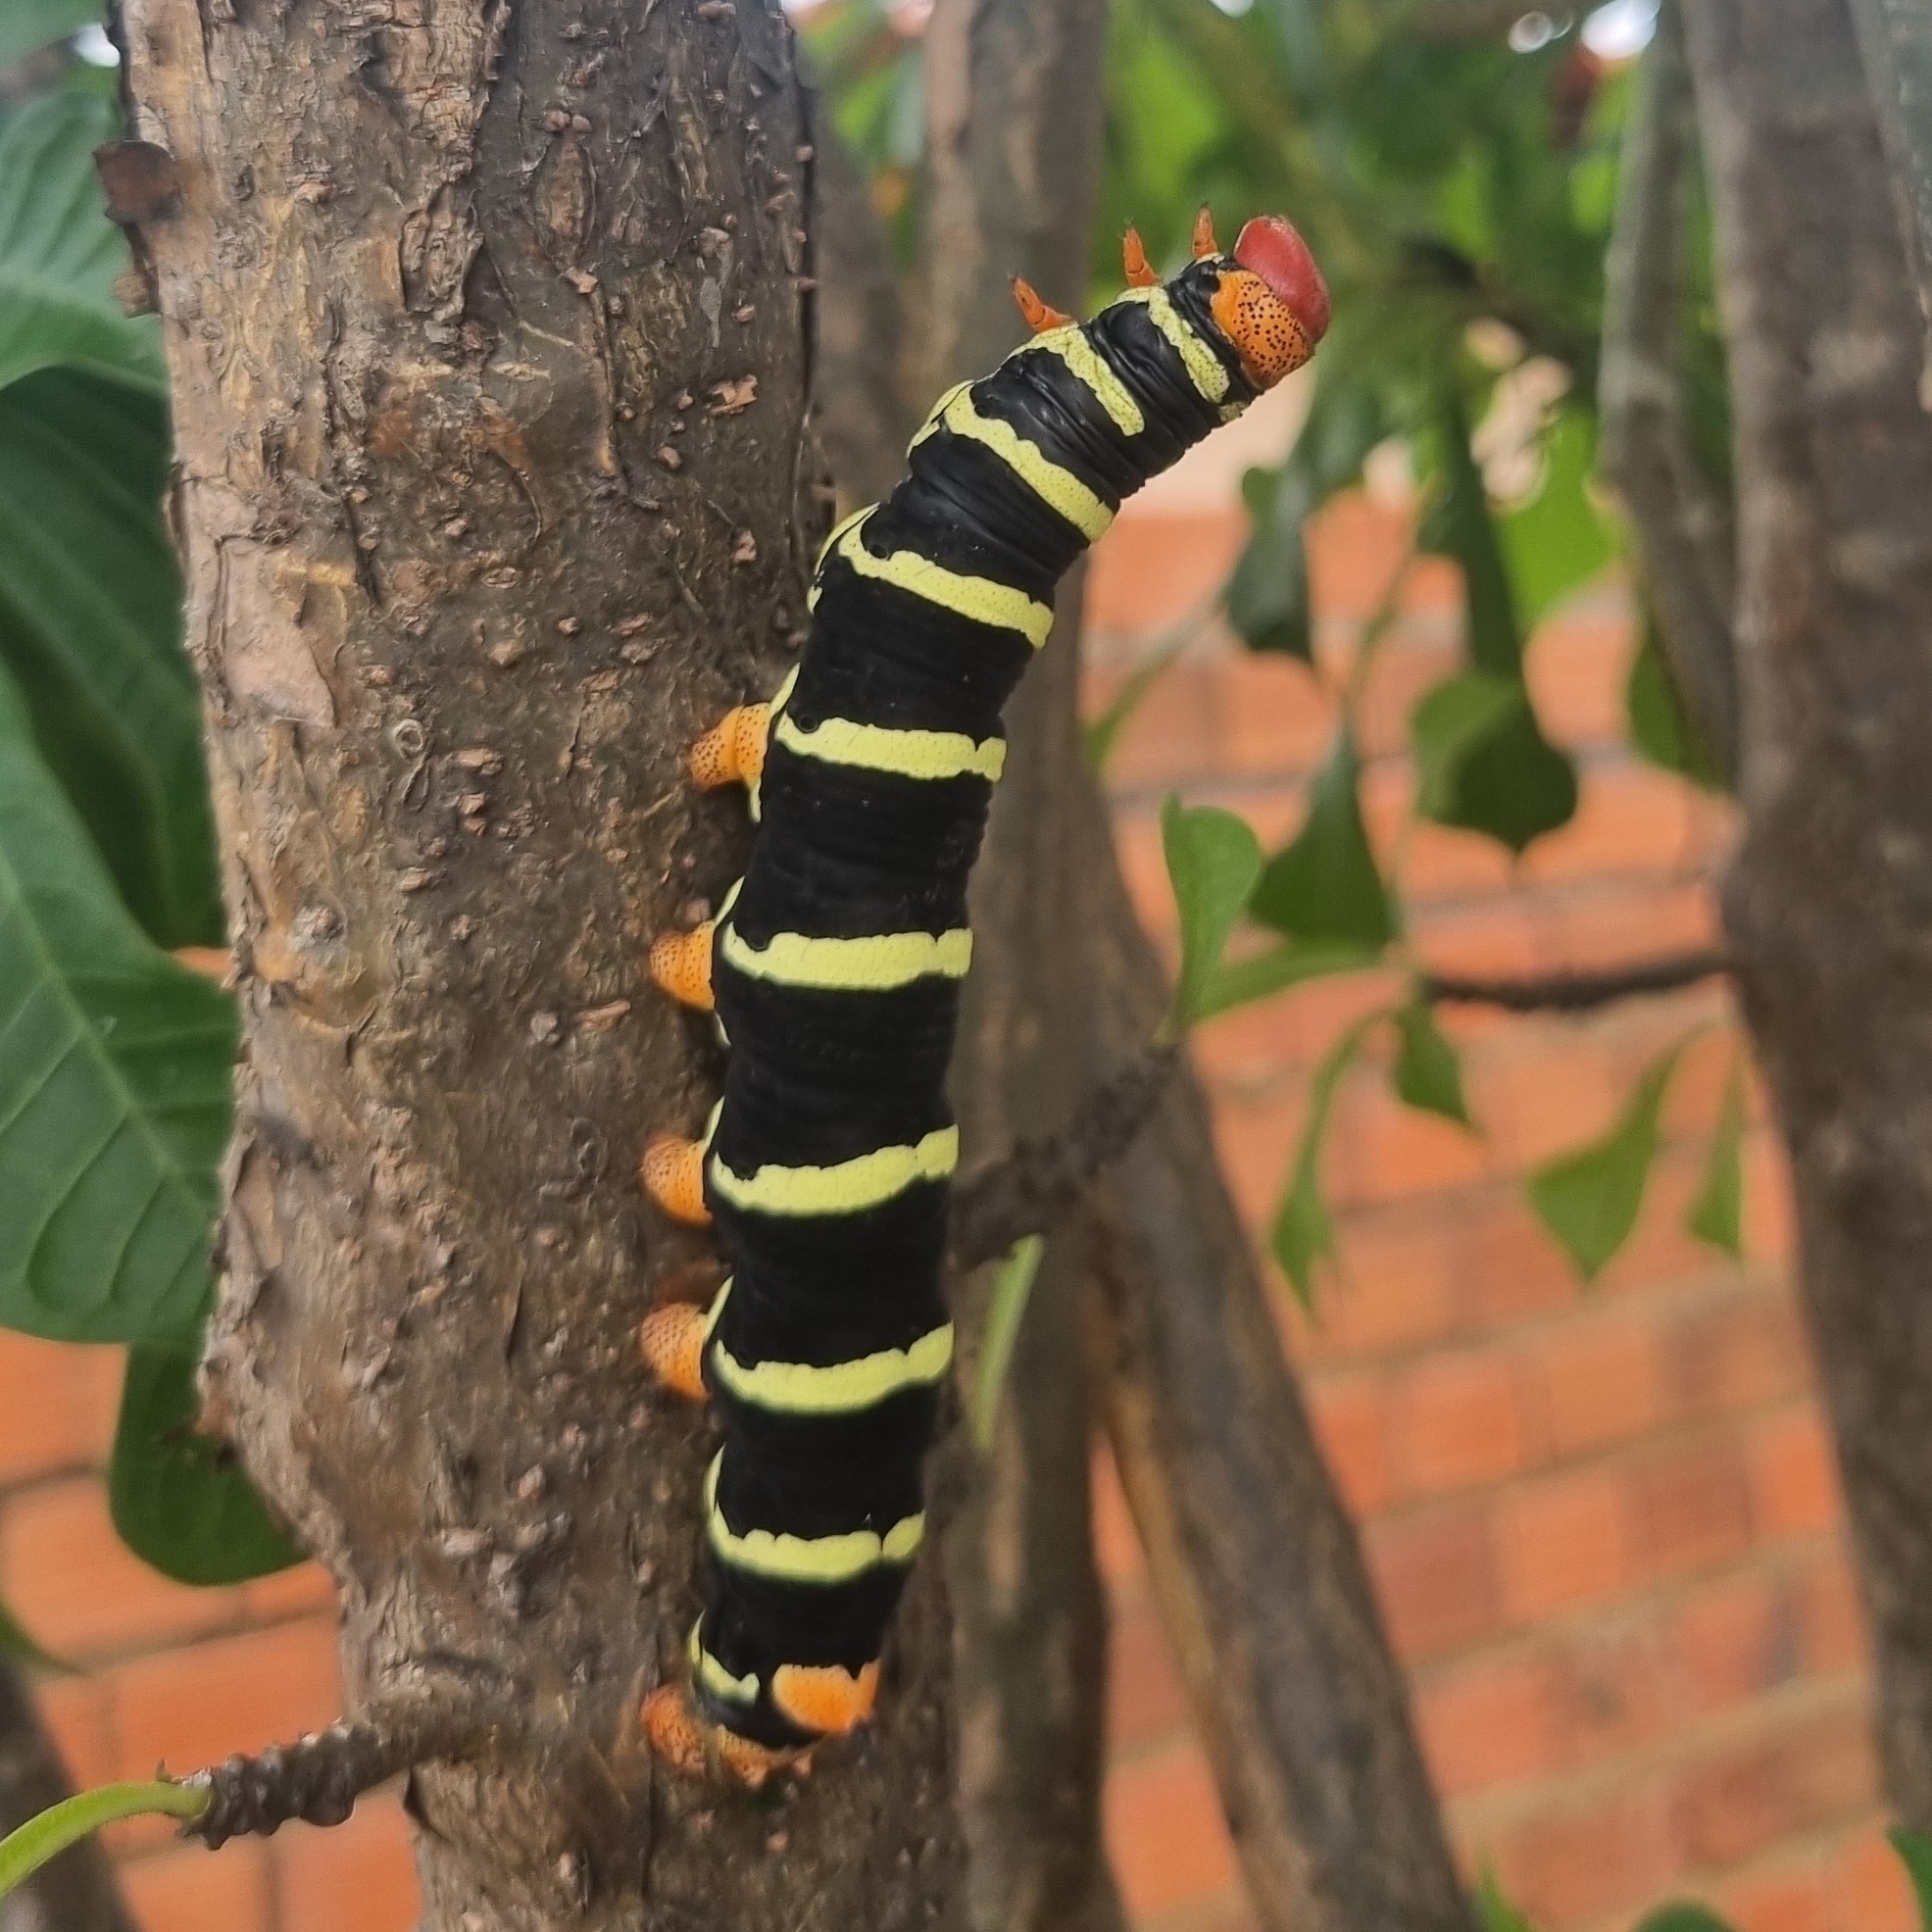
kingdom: Animalia
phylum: Arthropoda
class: Insecta
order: Lepidoptera
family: Sphingidae
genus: Pseudosphinx
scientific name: Pseudosphinx tetrio
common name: Tetrio sphinx
